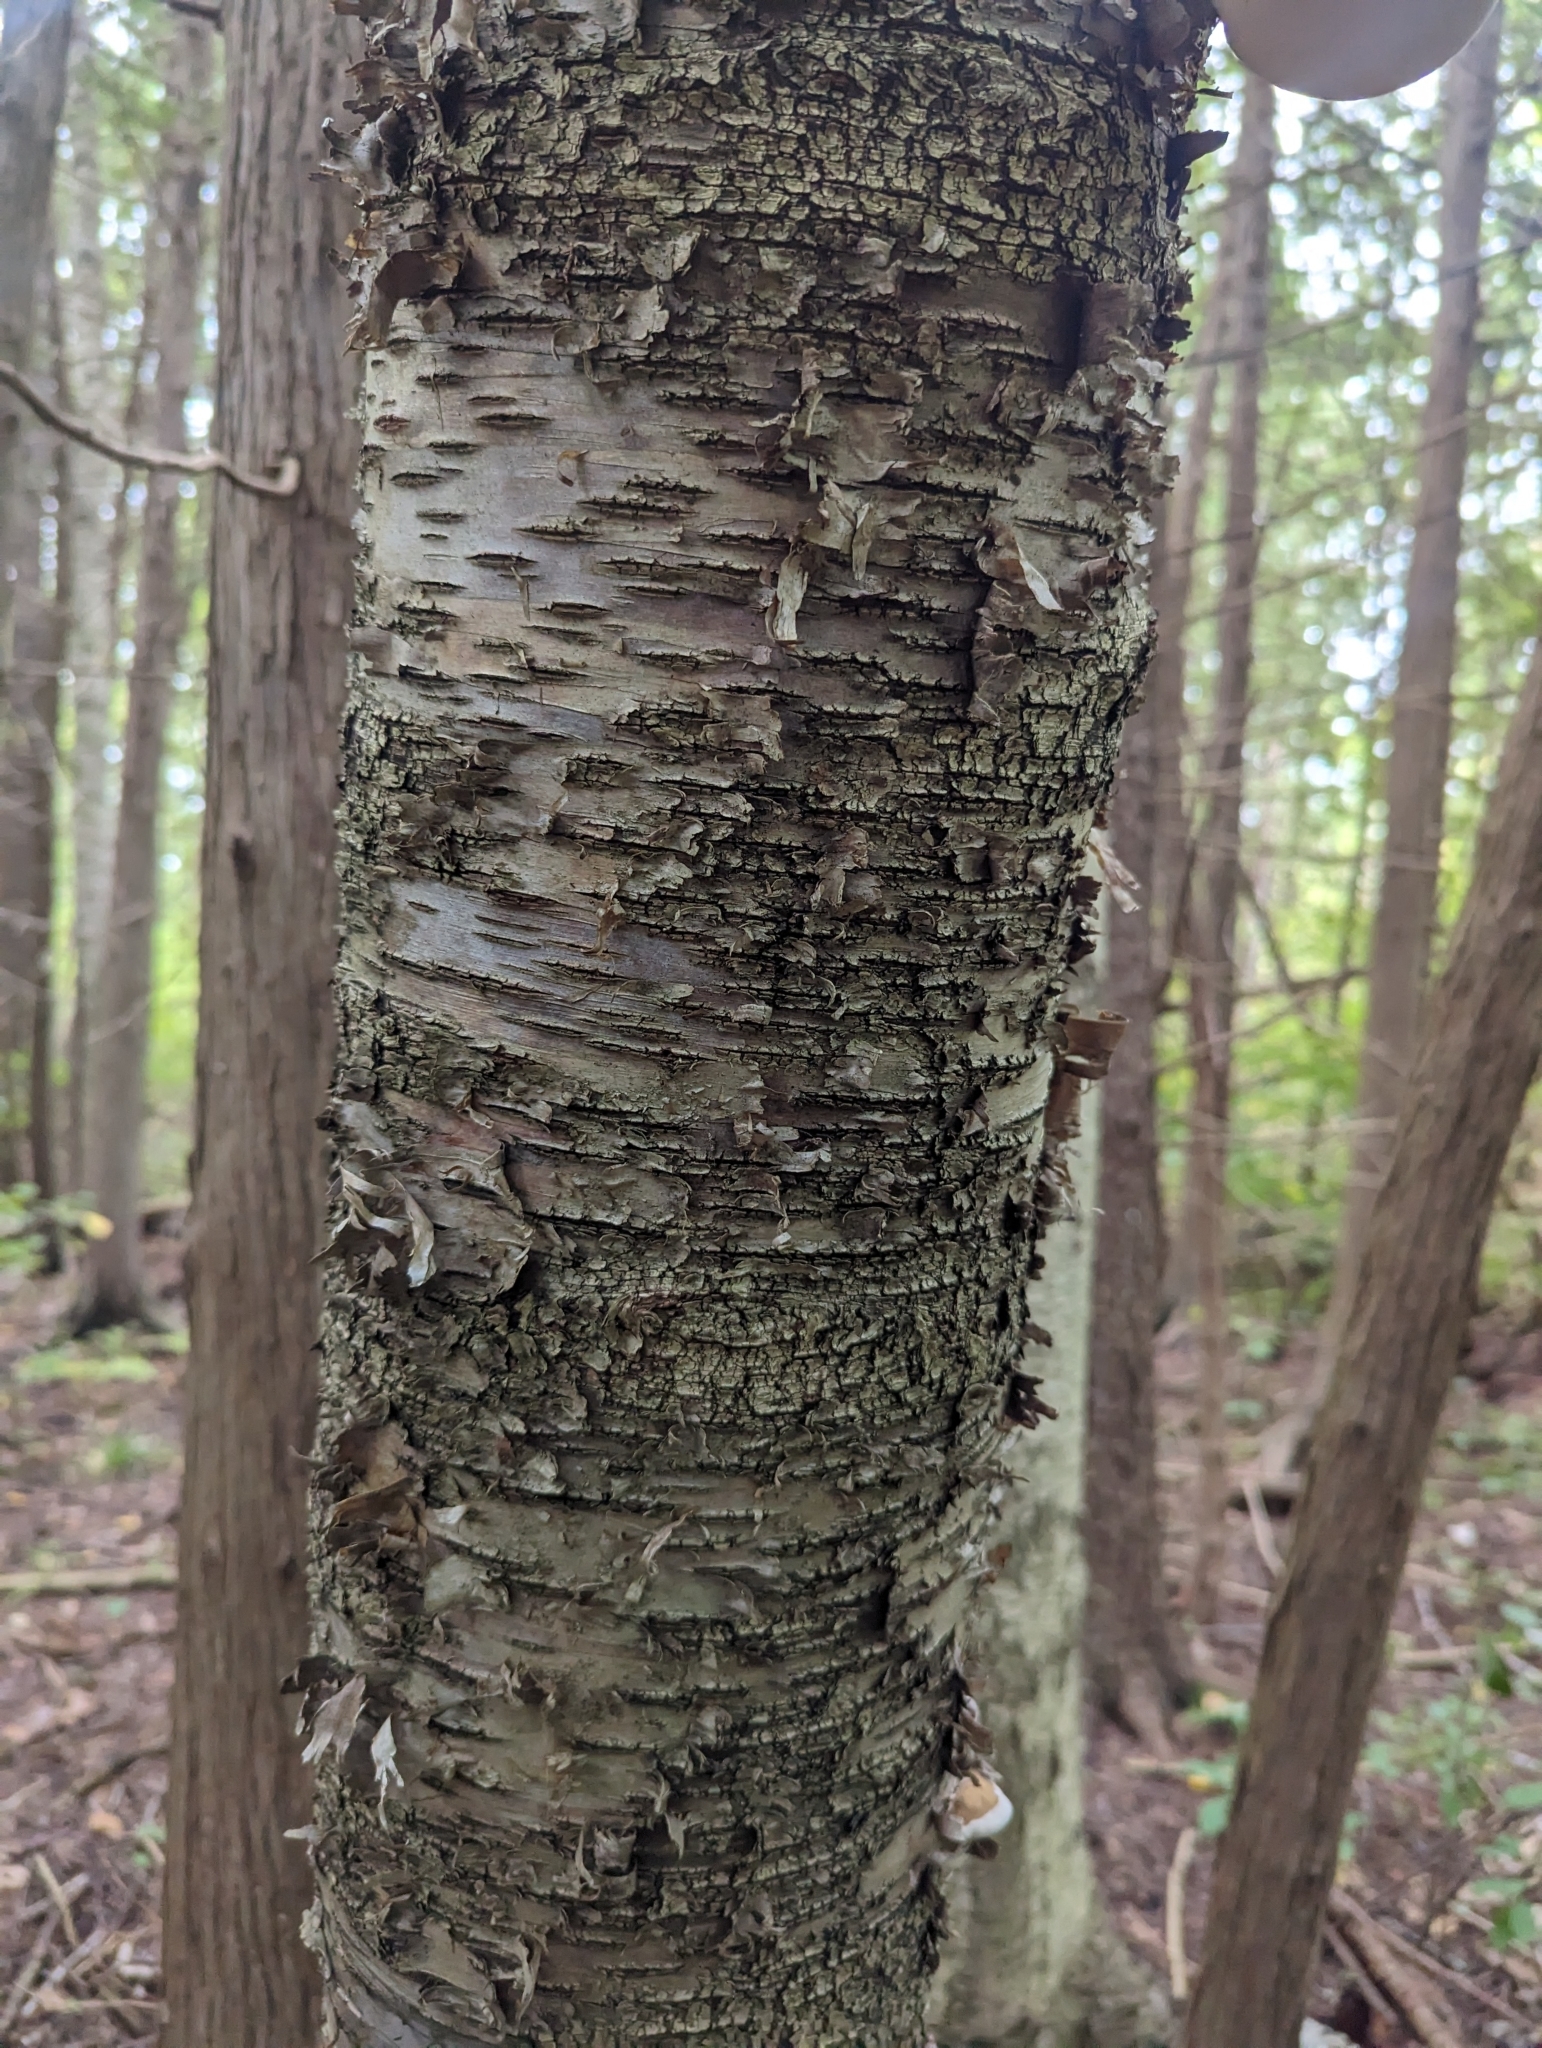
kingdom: Plantae
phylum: Tracheophyta
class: Magnoliopsida
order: Fagales
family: Betulaceae
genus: Betula
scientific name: Betula alleghaniensis
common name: Yellow birch
